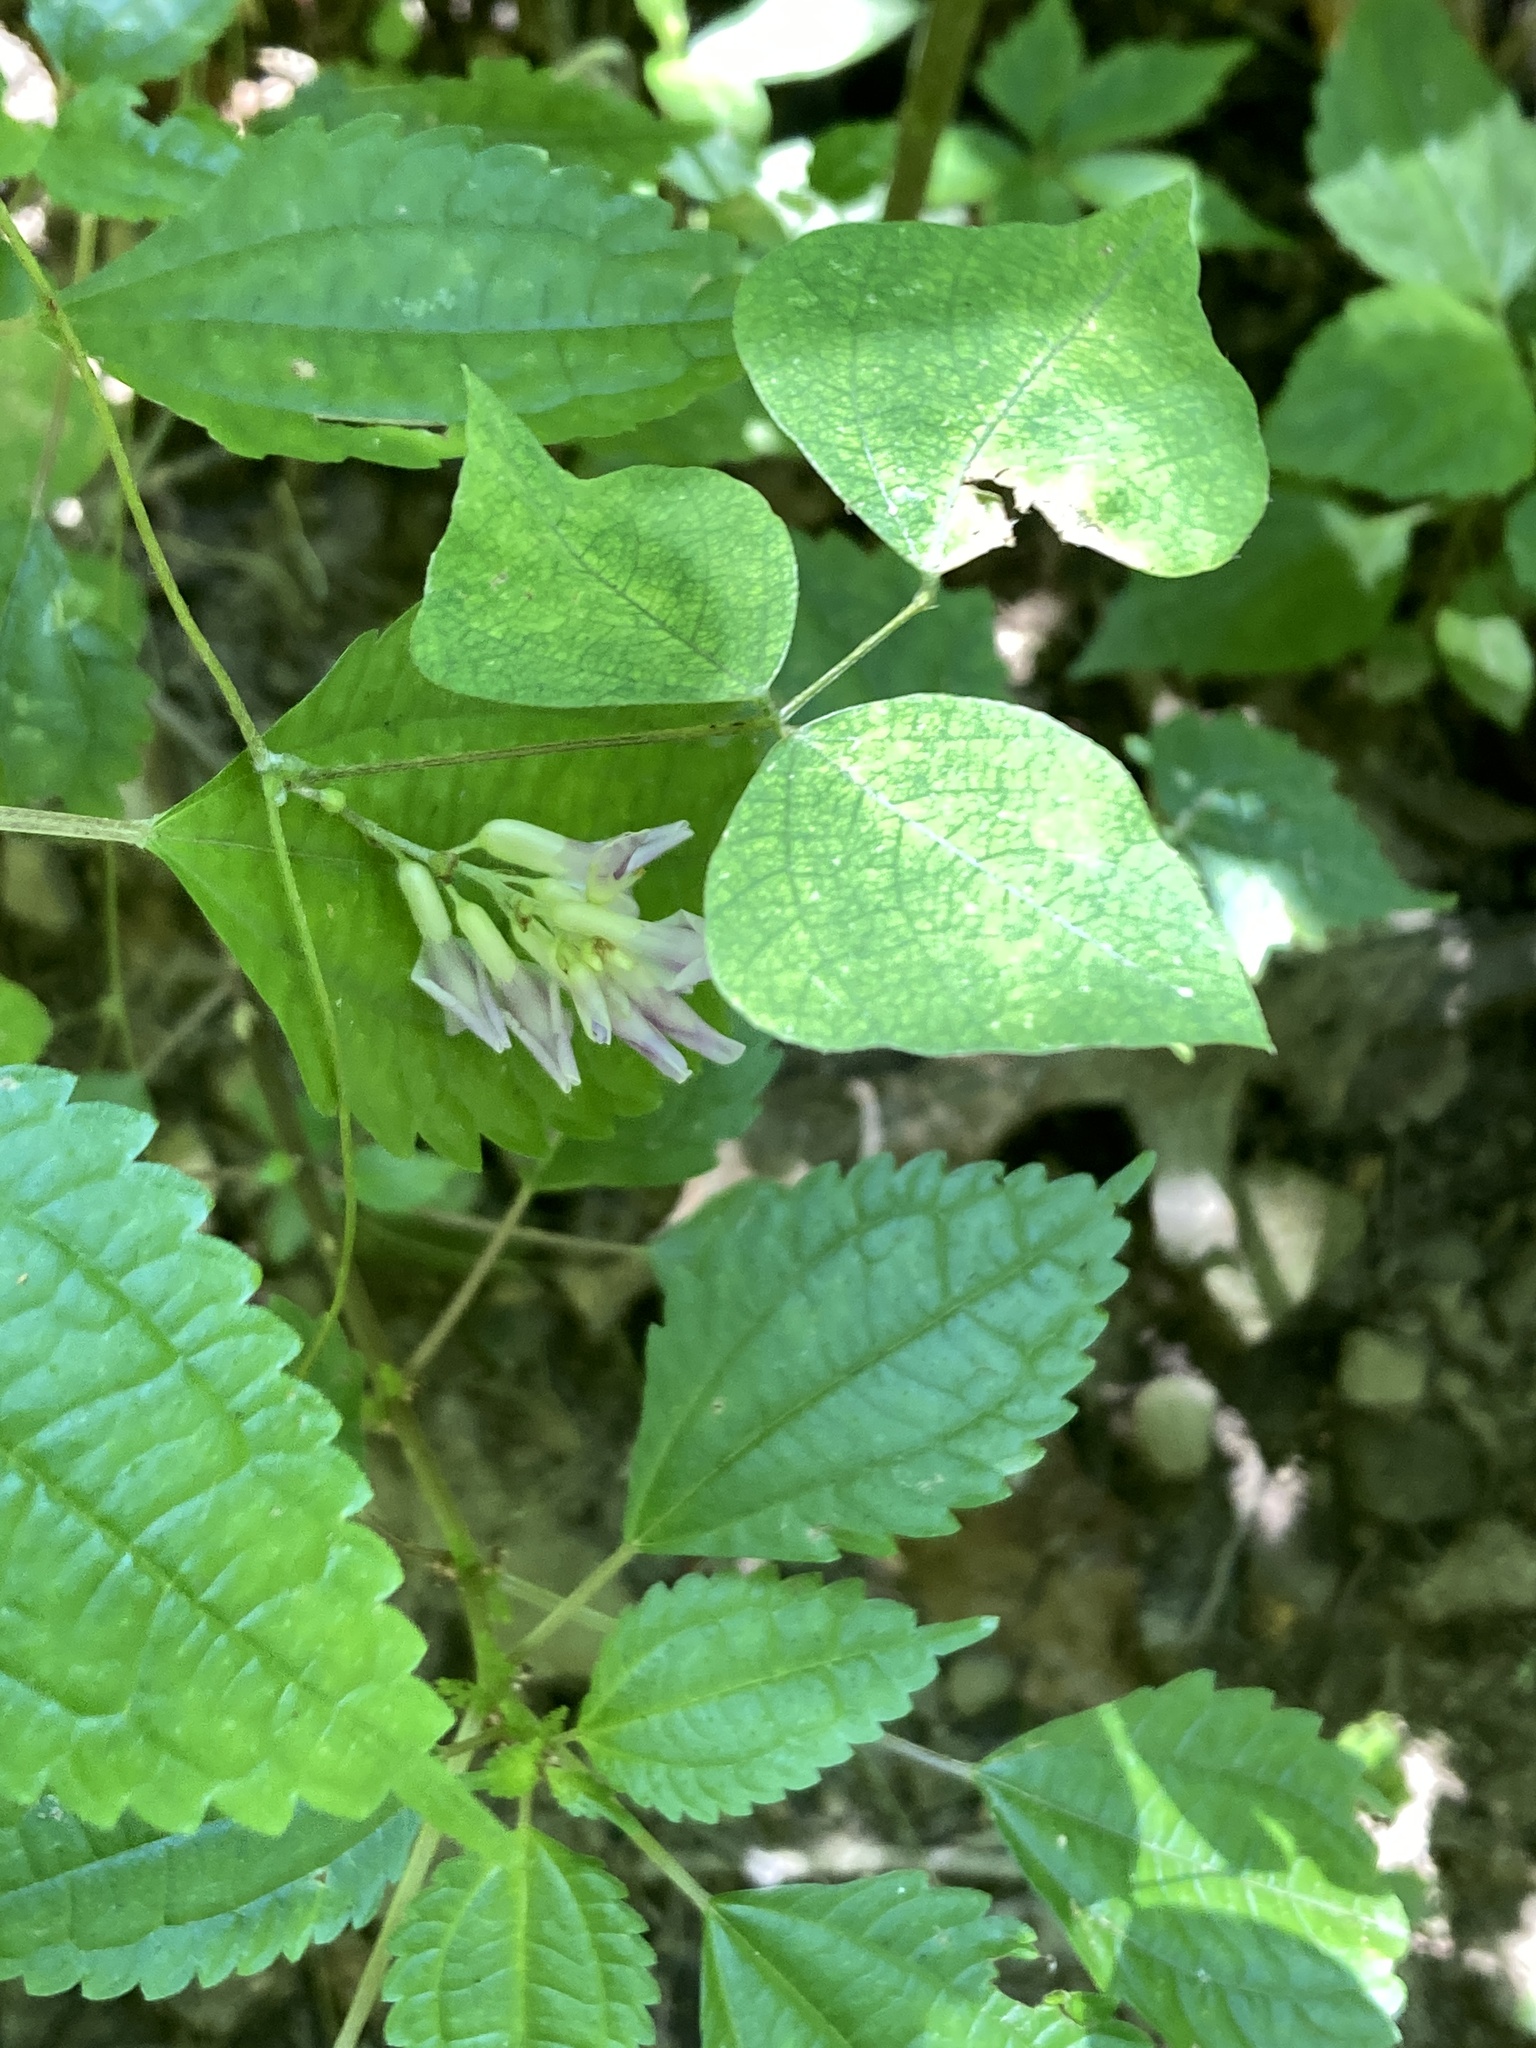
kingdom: Plantae
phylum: Tracheophyta
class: Magnoliopsida
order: Fabales
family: Fabaceae
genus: Amphicarpaea
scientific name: Amphicarpaea bracteata
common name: American hog peanut
